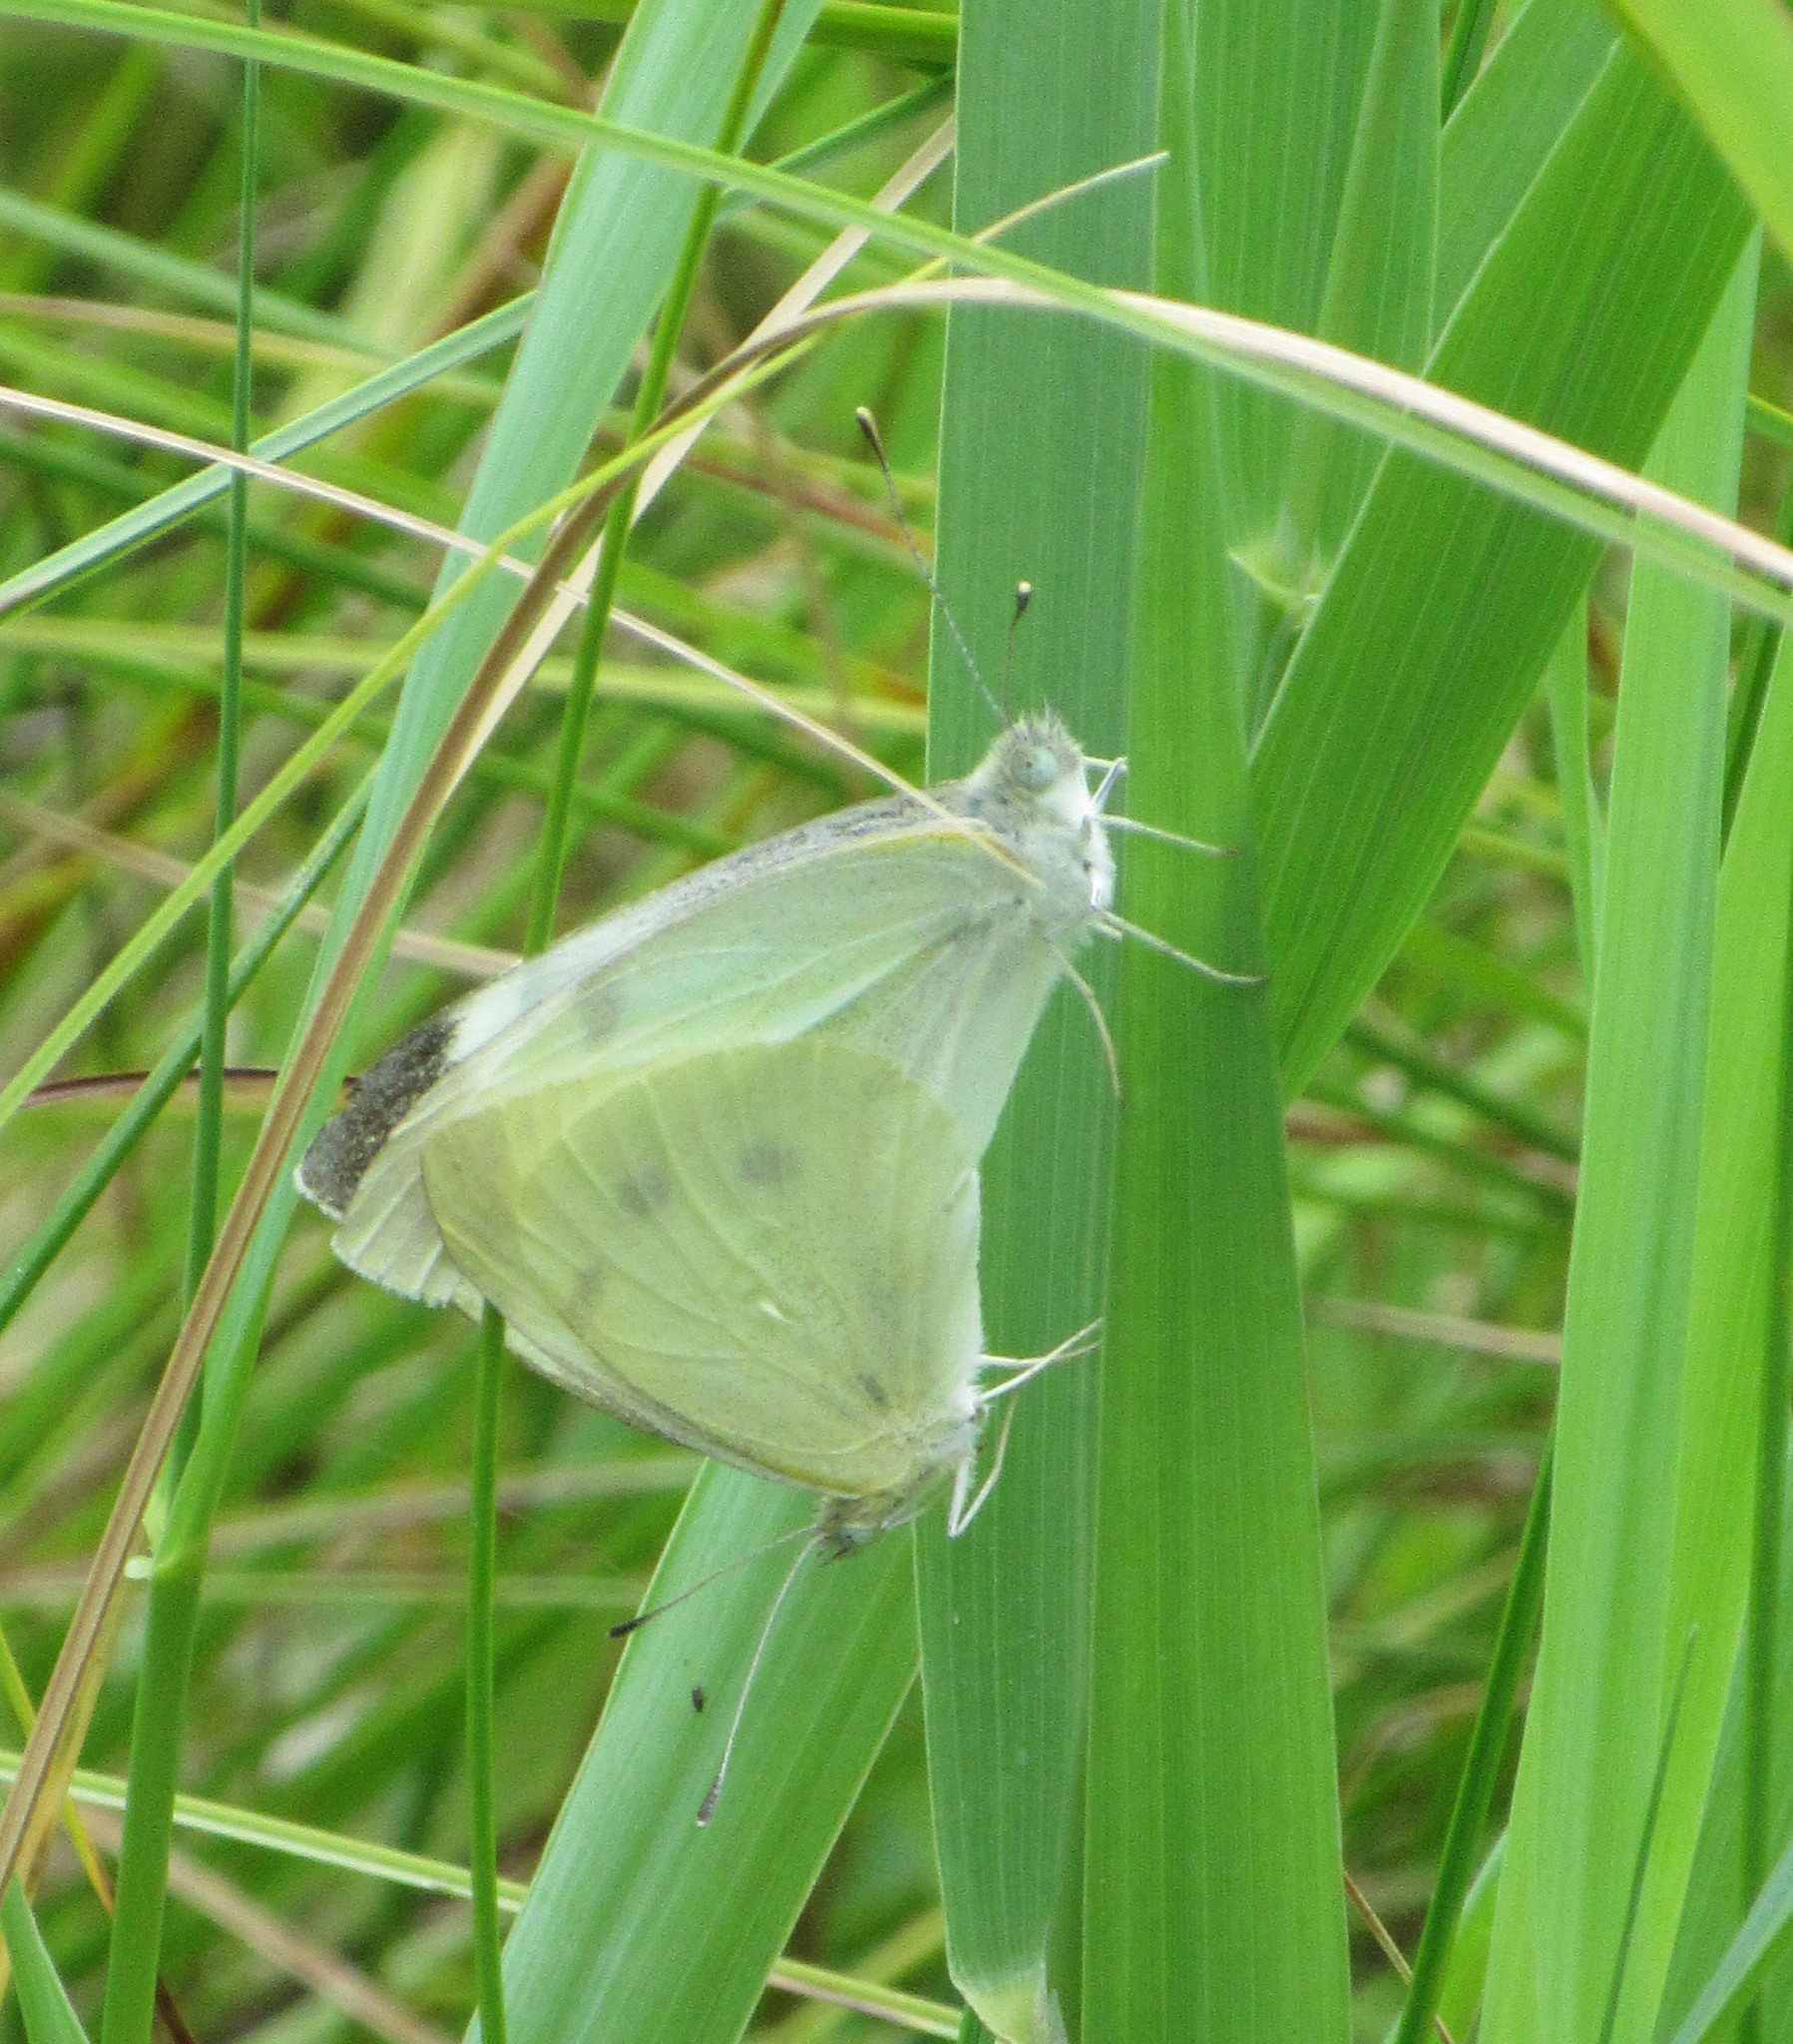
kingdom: Animalia
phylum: Arthropoda
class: Insecta
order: Lepidoptera
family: Pieridae
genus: Pieris
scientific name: Pieris rapae
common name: Small white
